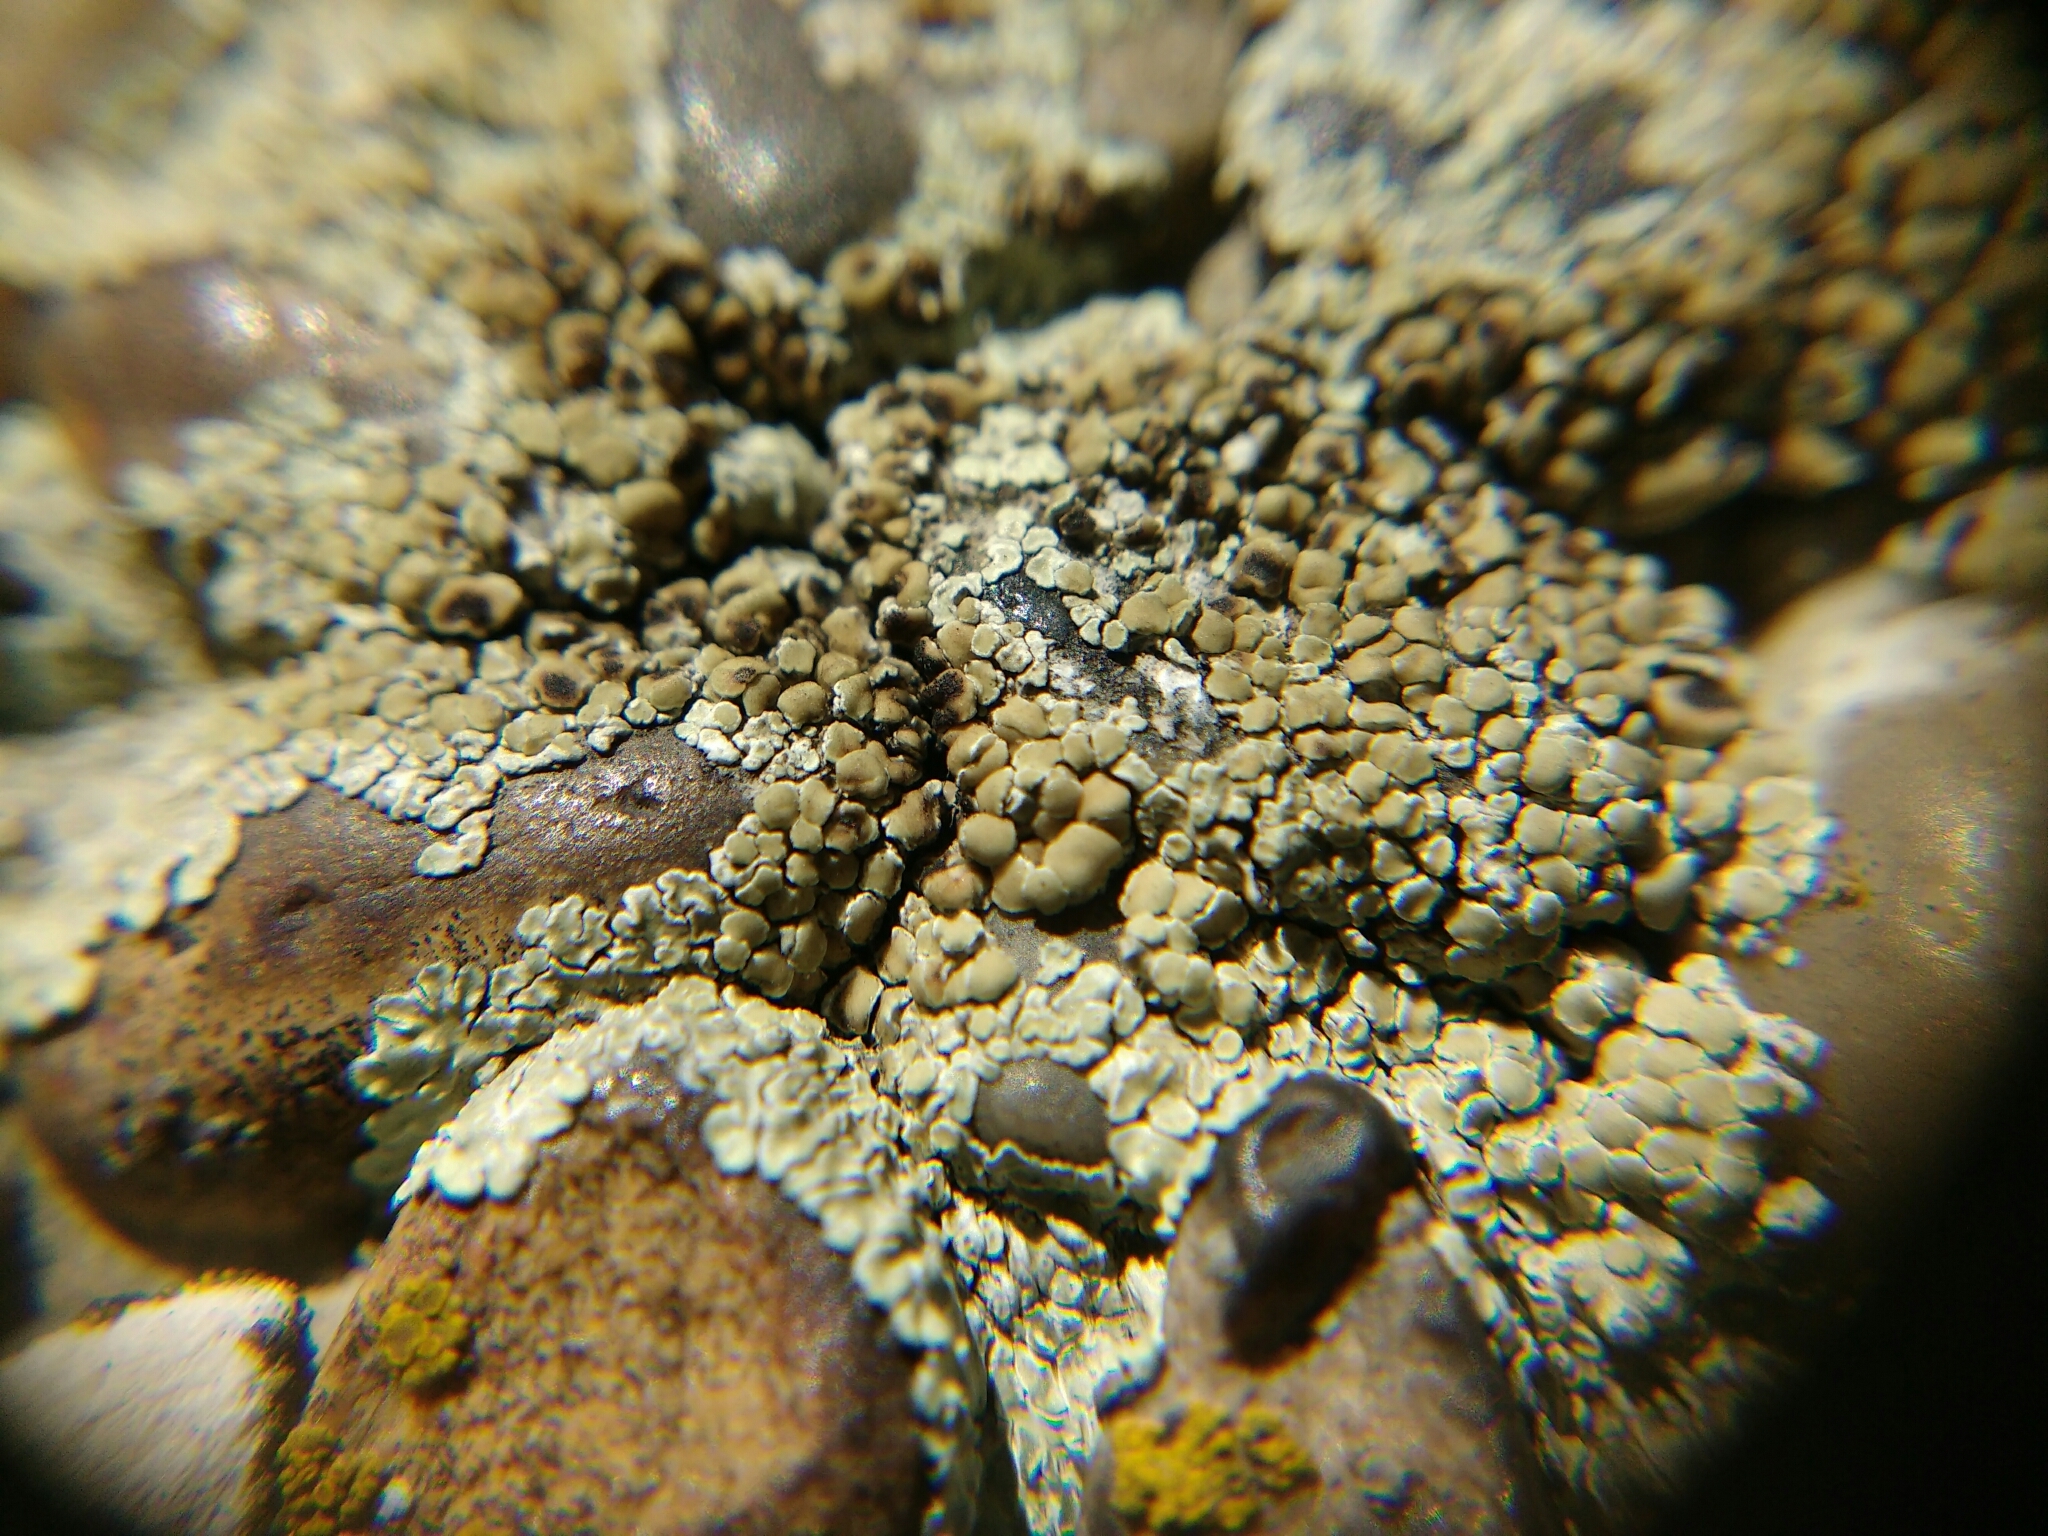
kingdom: Fungi
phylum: Ascomycota
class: Lecanoromycetes
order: Lecanorales
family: Lecanoraceae
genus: Protoparmeliopsis
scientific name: Protoparmeliopsis muralis
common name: Stonewall rim lichen
